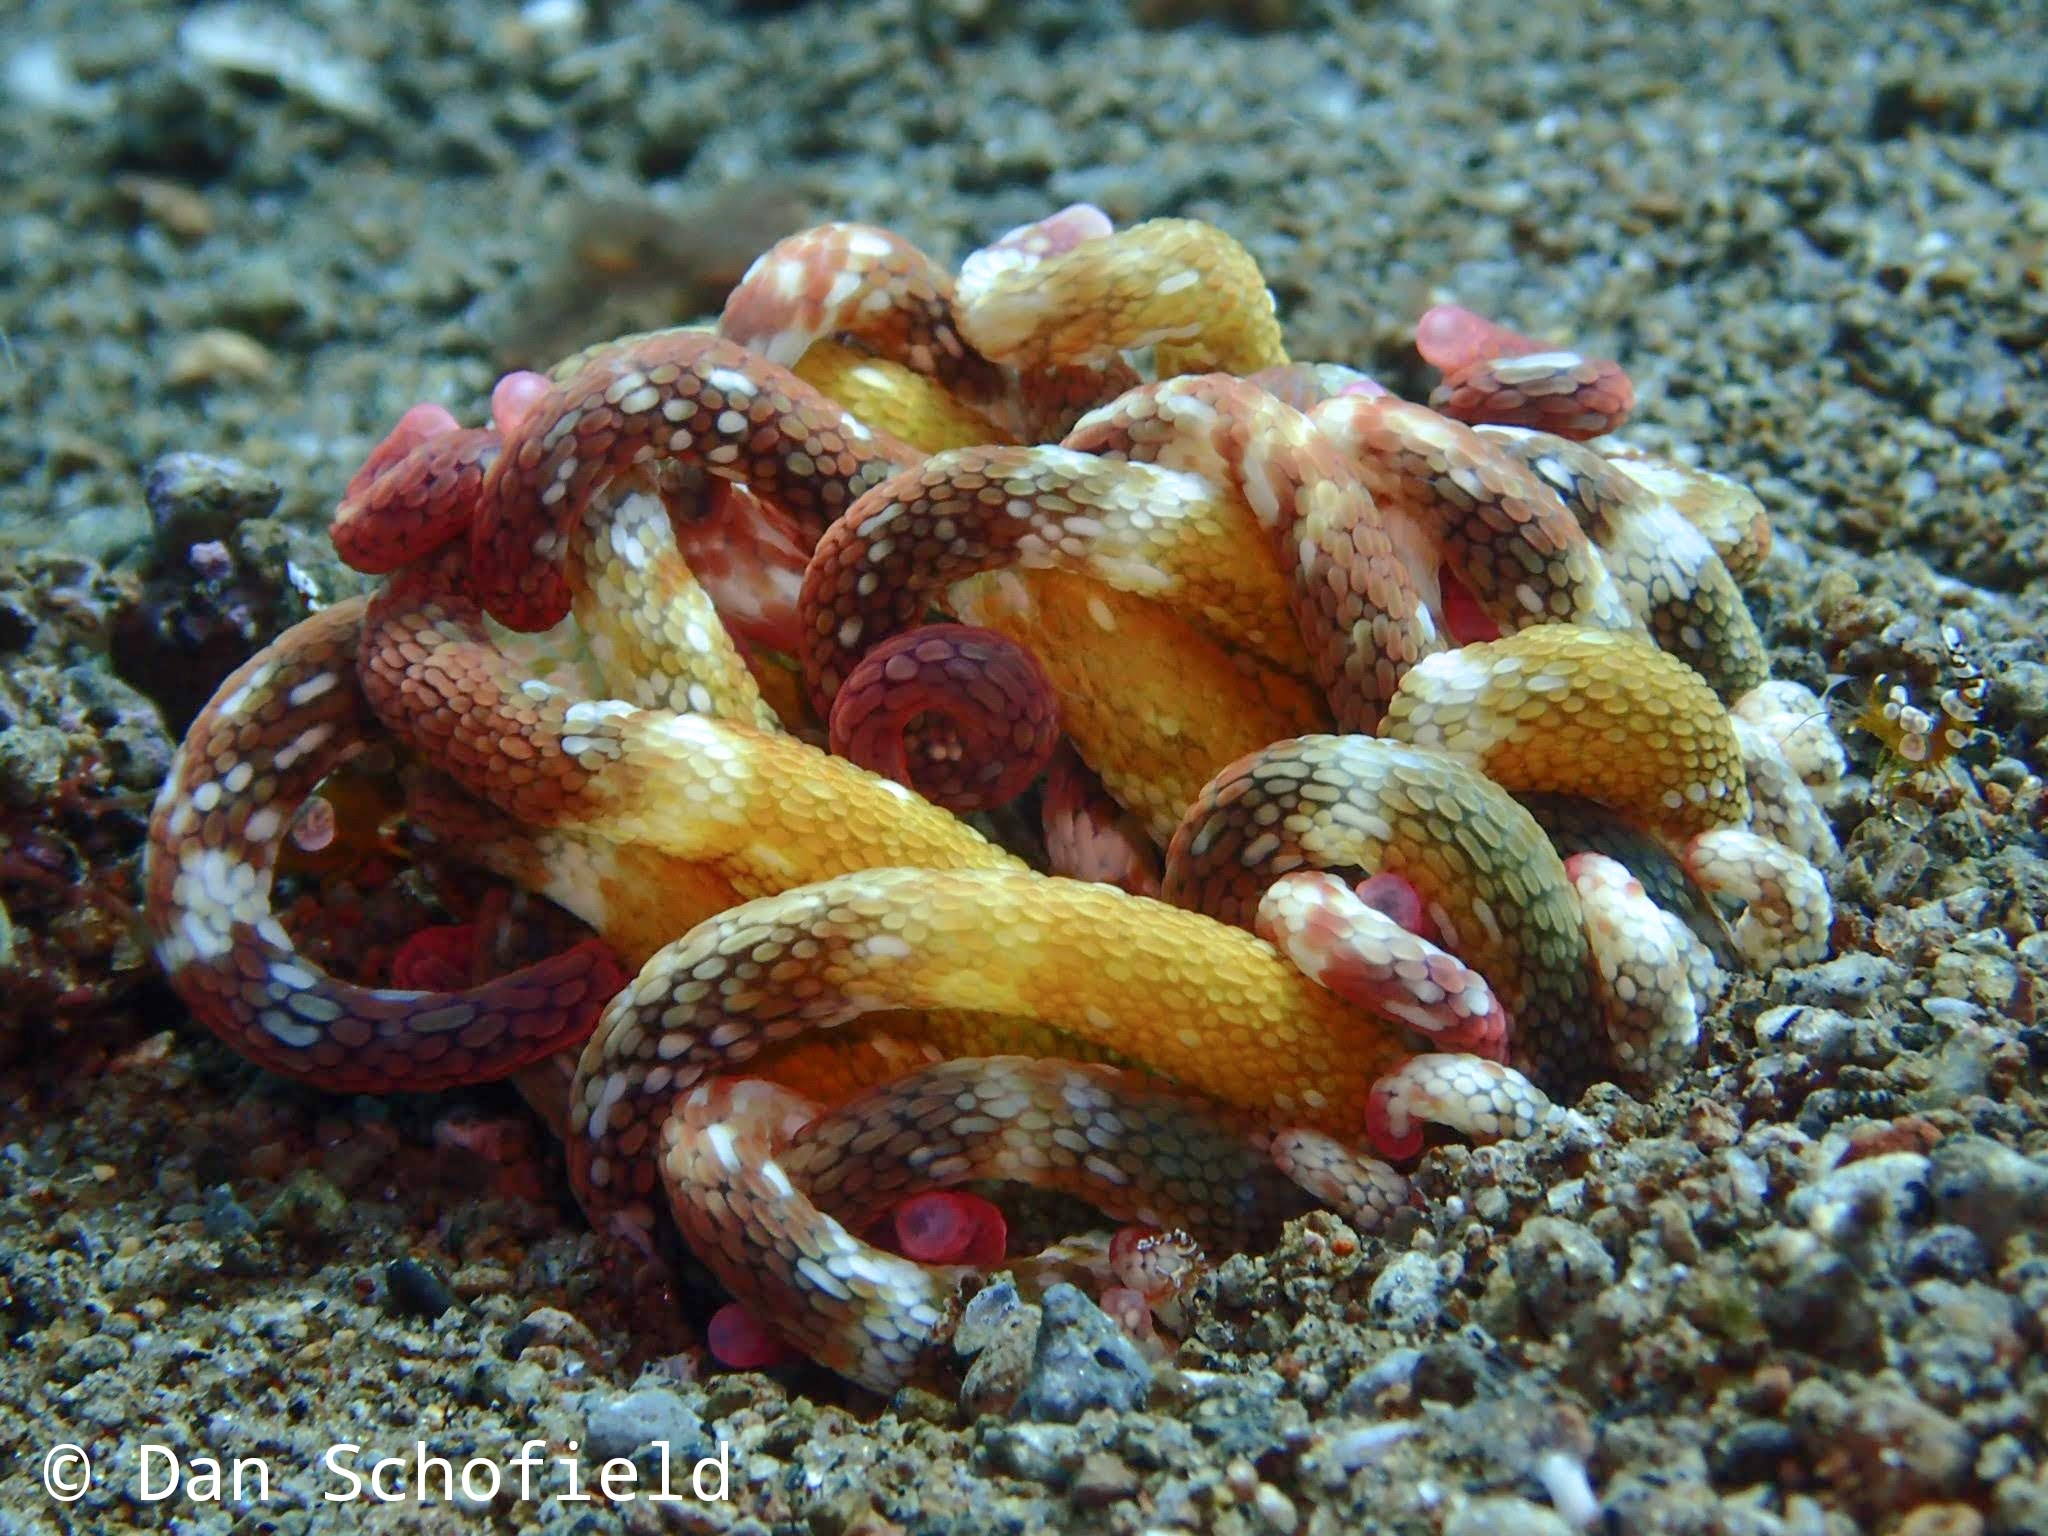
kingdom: Animalia
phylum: Cnidaria
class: Anthozoa
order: Actiniaria
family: Actiniidae
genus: Dofleinia
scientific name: Dofleinia armata
